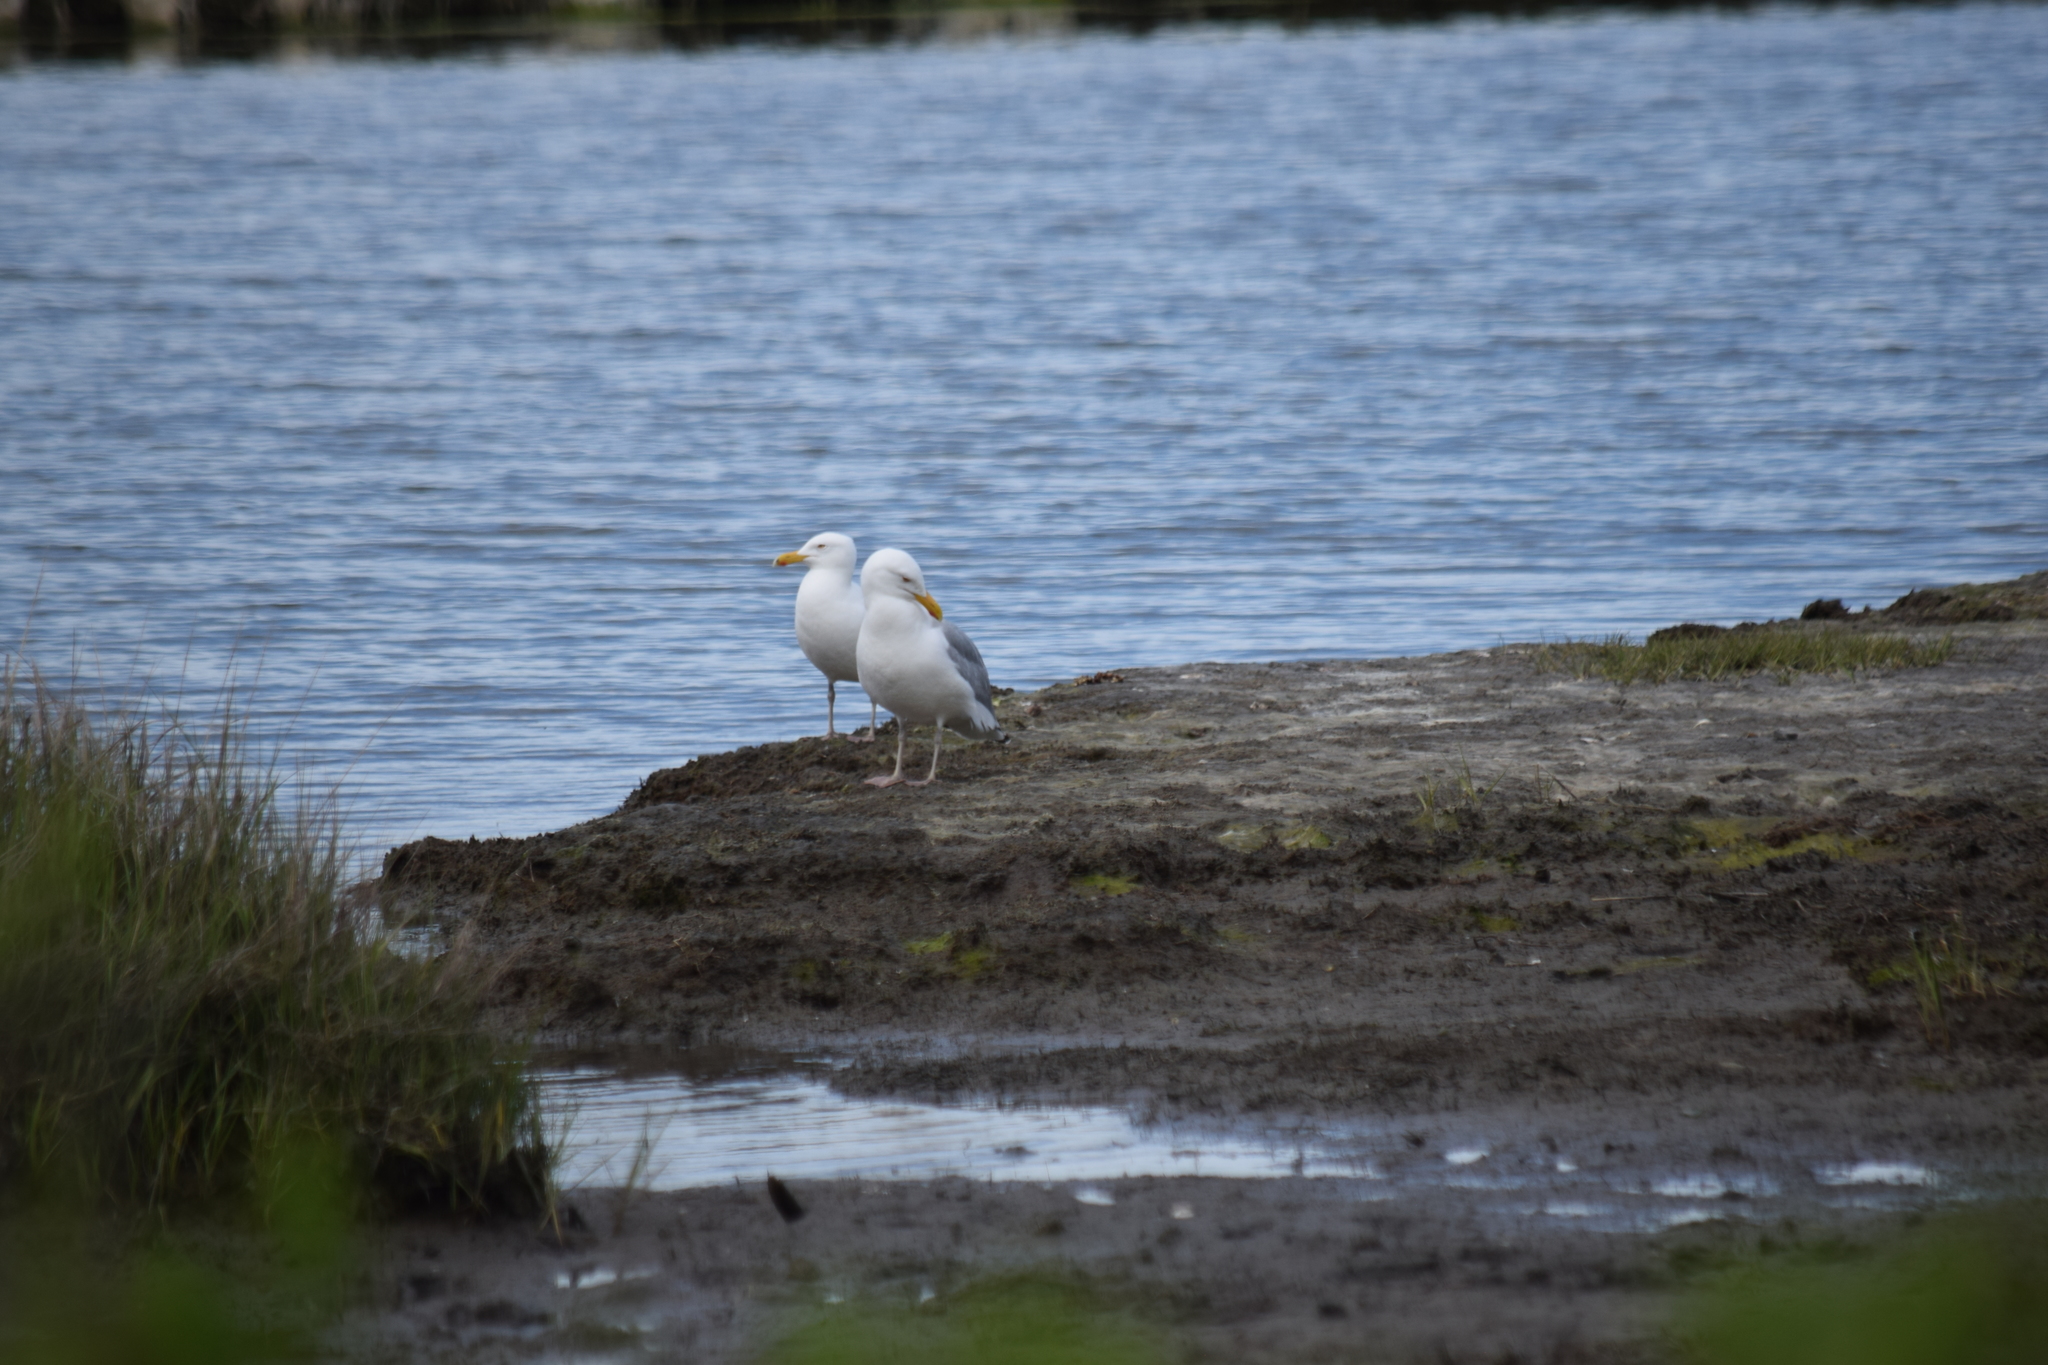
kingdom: Animalia
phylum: Chordata
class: Aves
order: Charadriiformes
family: Laridae
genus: Larus
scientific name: Larus argentatus
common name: Herring gull
